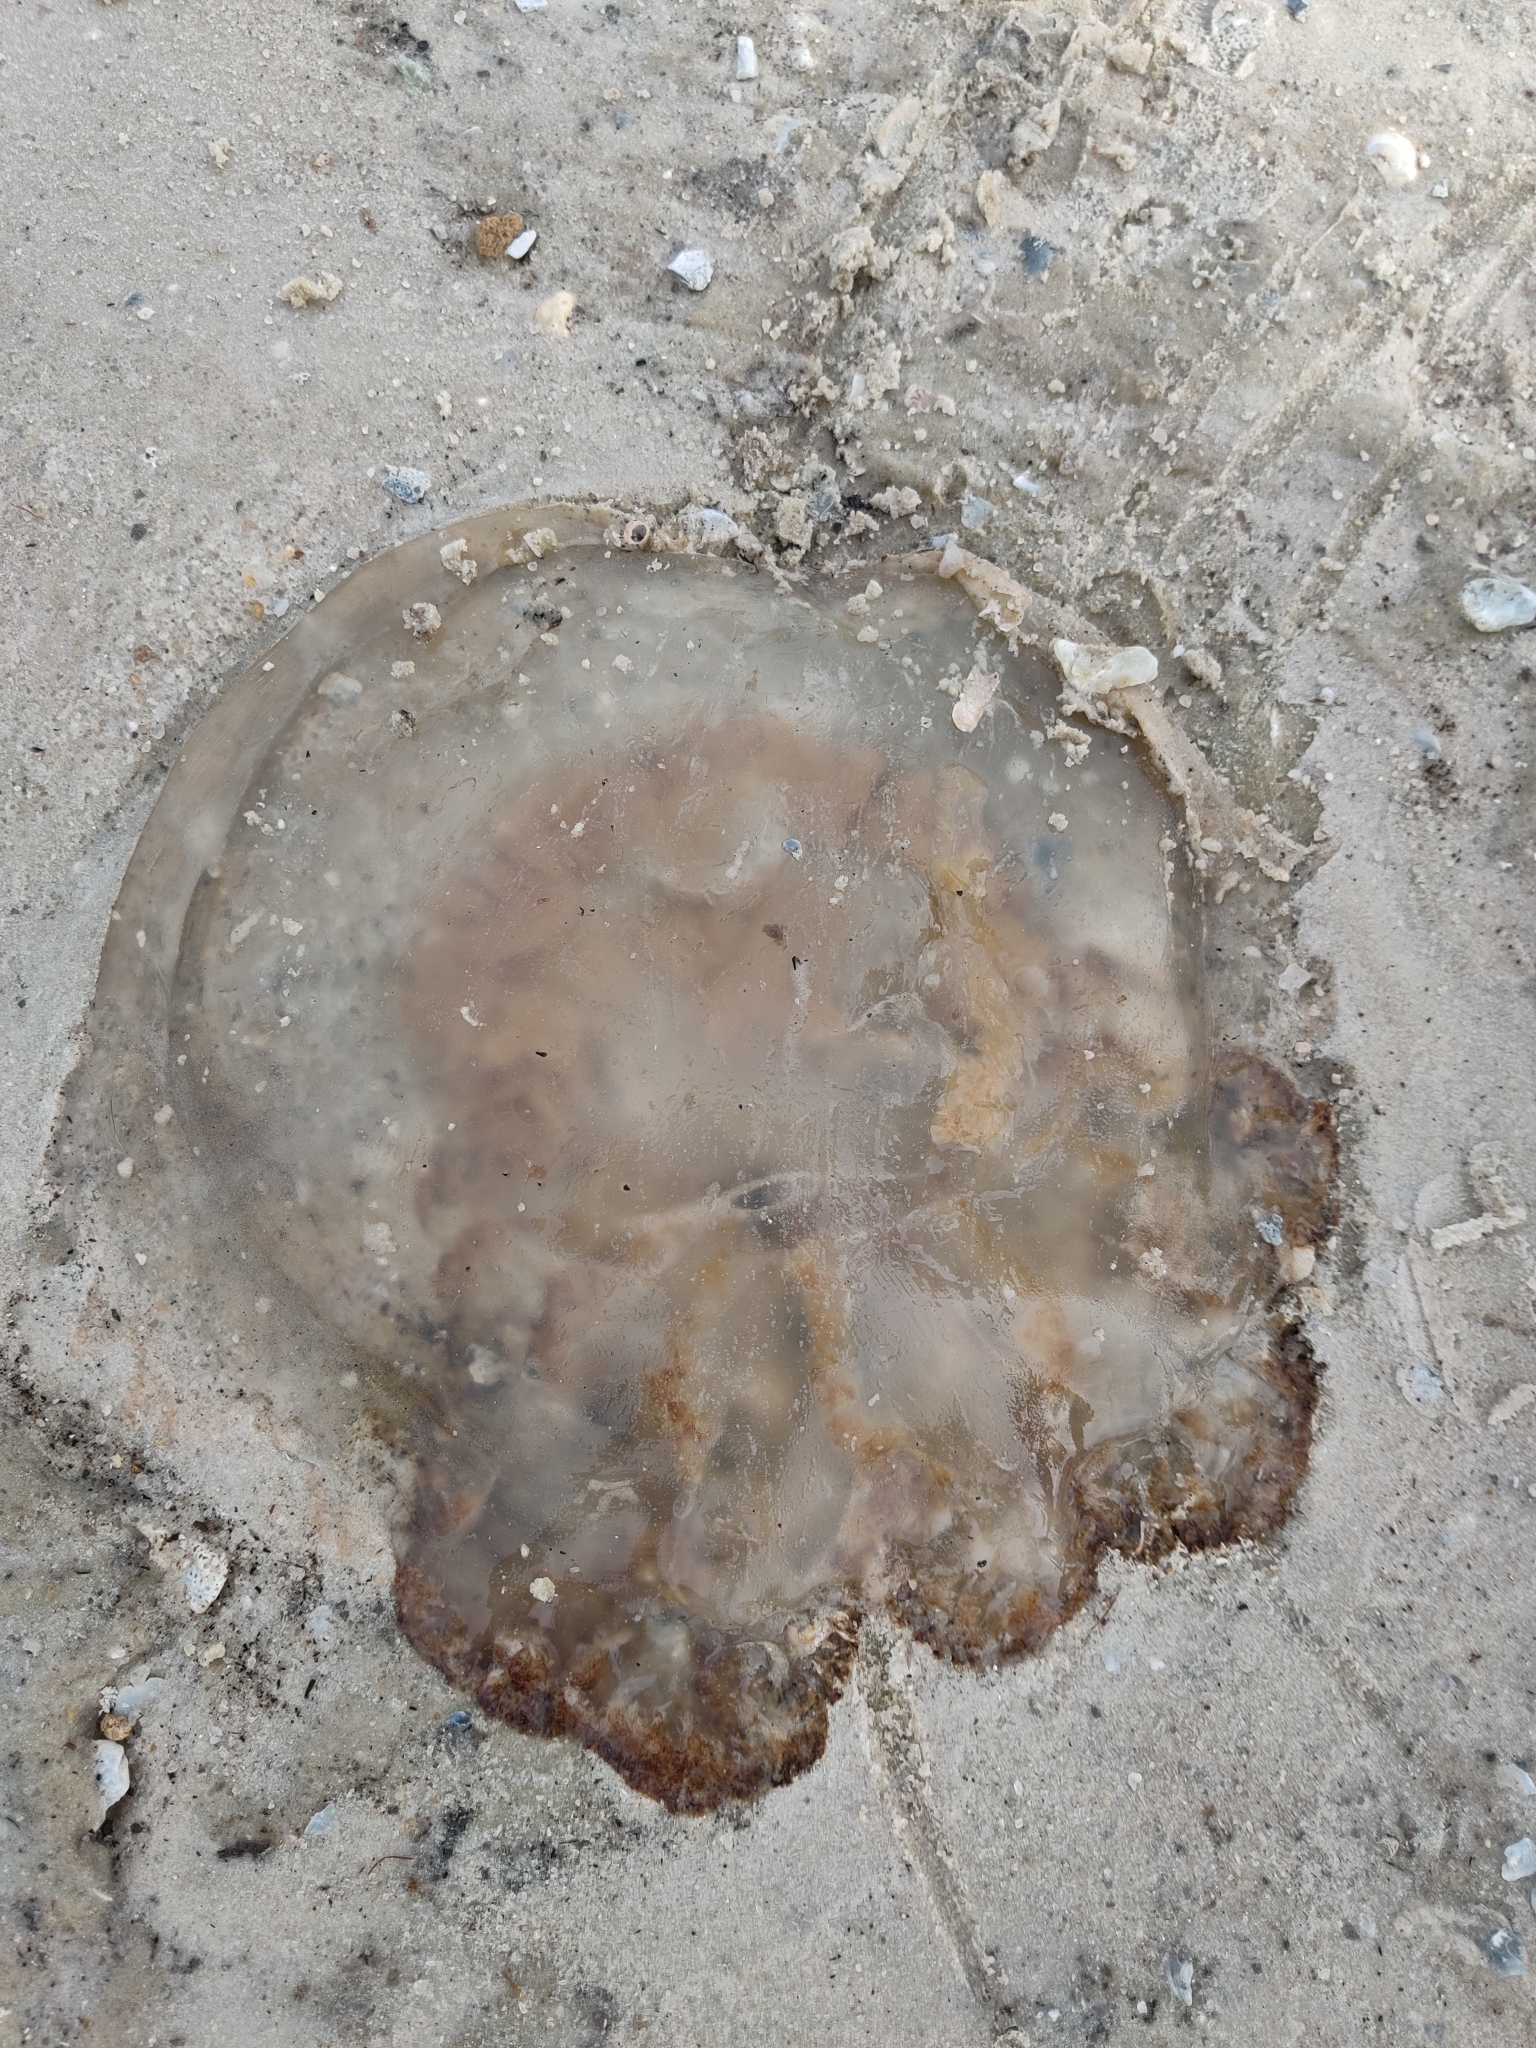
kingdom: Animalia
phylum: Cnidaria
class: Scyphozoa
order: Rhizostomeae
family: Rhizostomatidae
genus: Rhopilema
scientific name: Rhopilema verrilli
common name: Mushroom cap jellyfish
